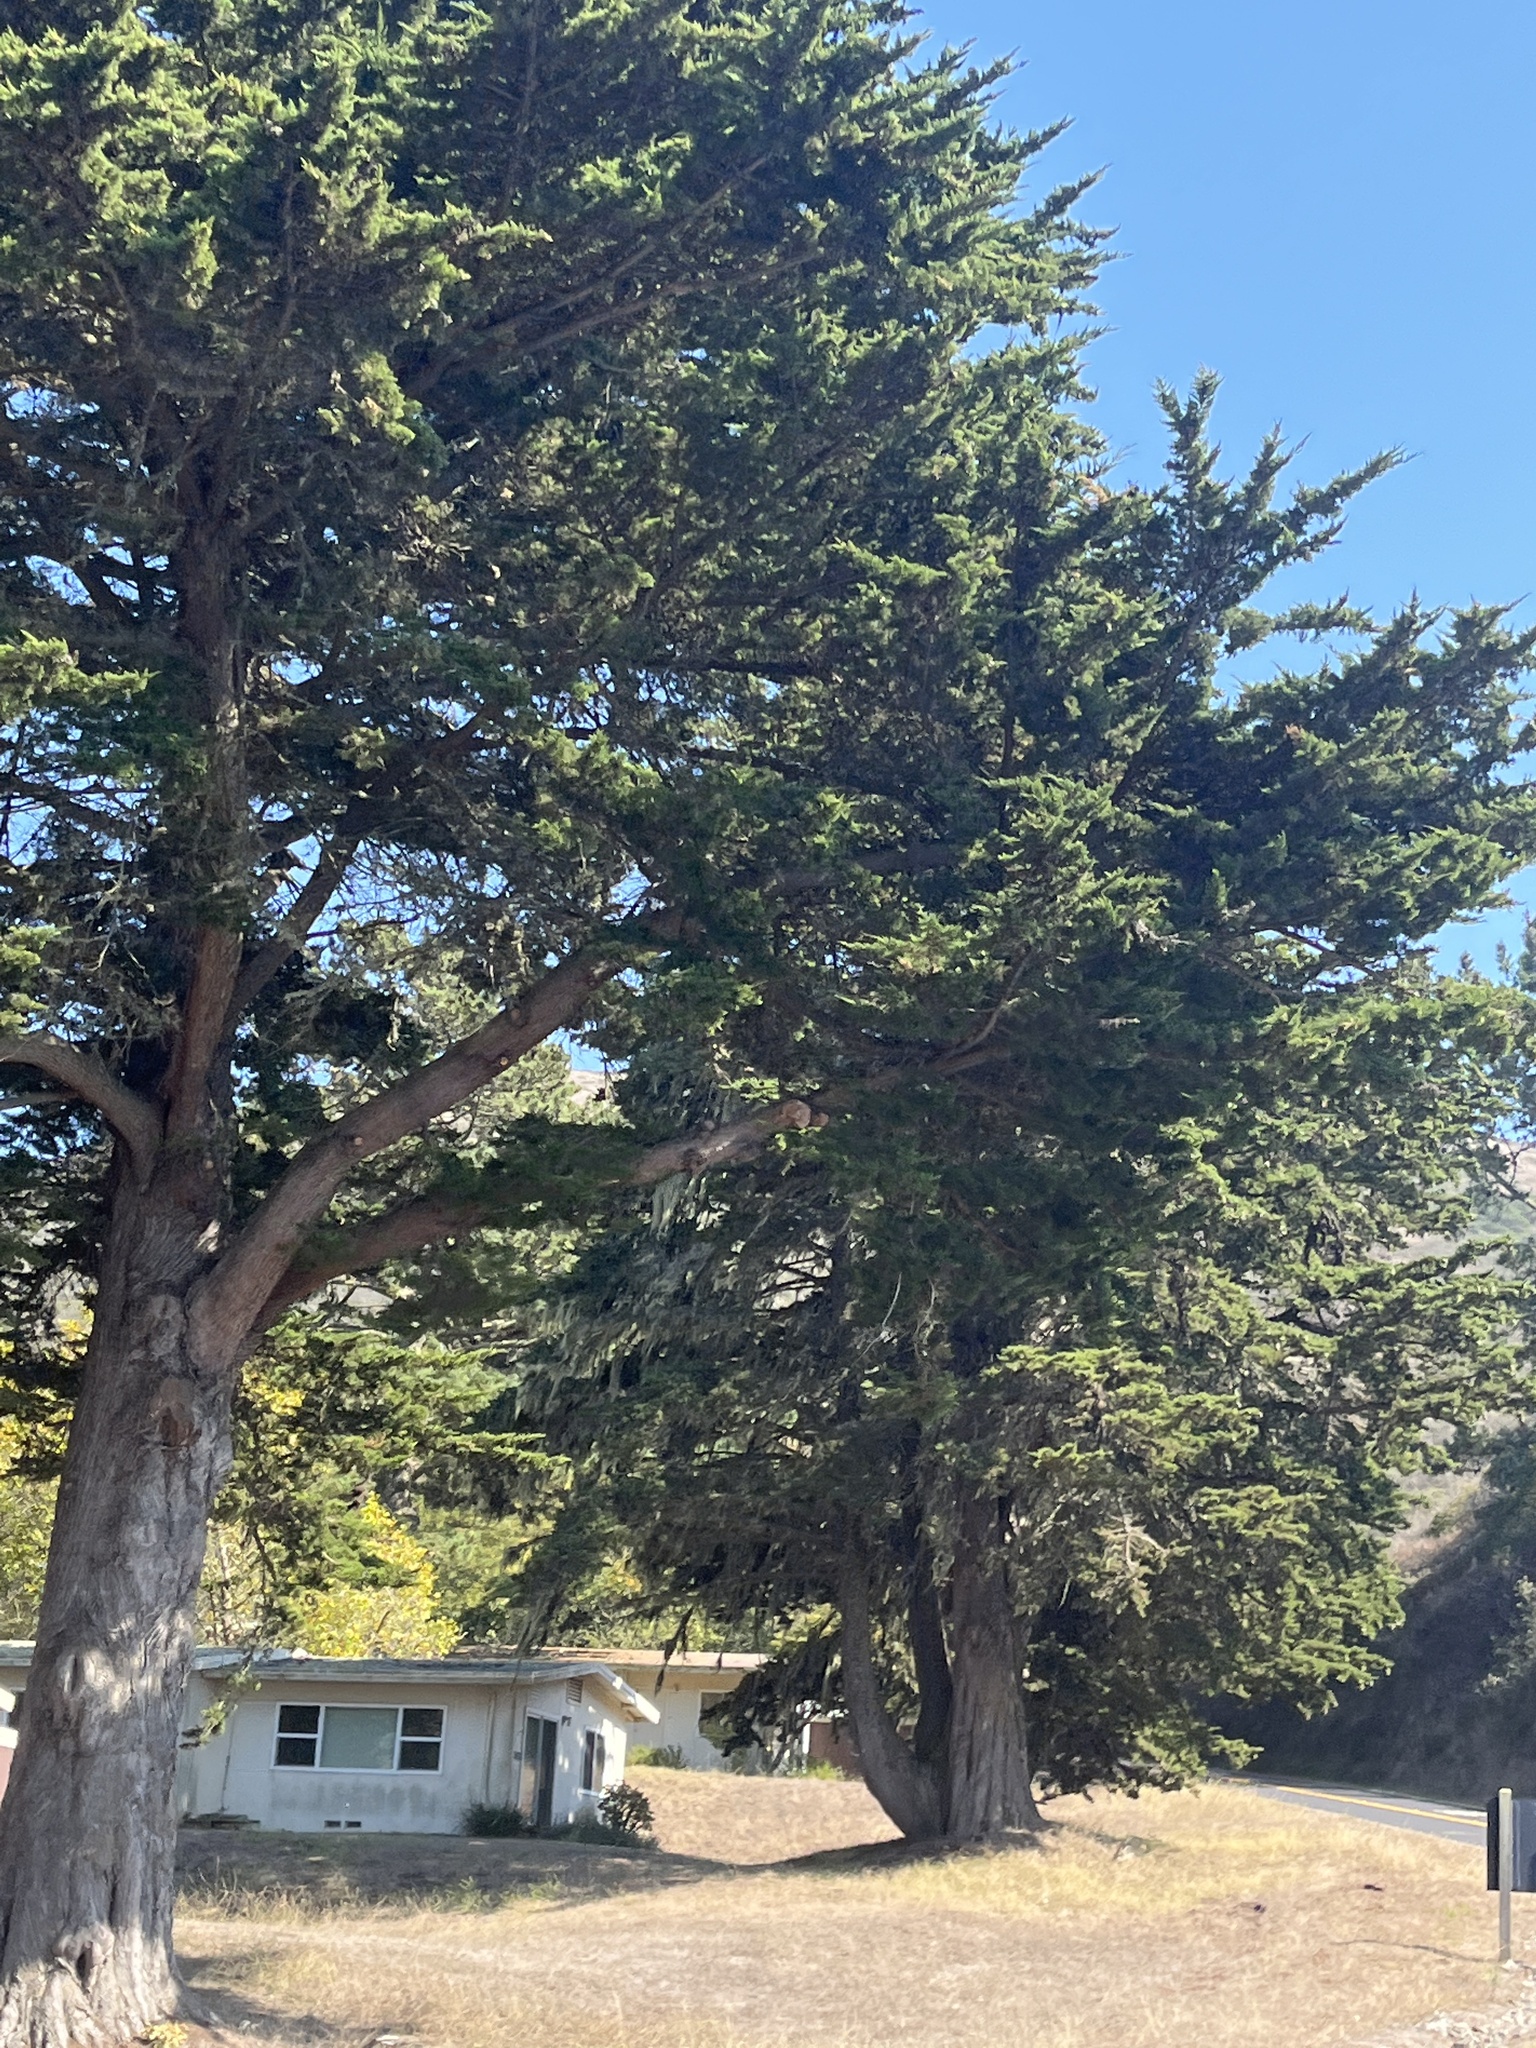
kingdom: Plantae
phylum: Tracheophyta
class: Pinopsida
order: Pinales
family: Cupressaceae
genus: Cupressus
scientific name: Cupressus macrocarpa
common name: Monterey cypress
